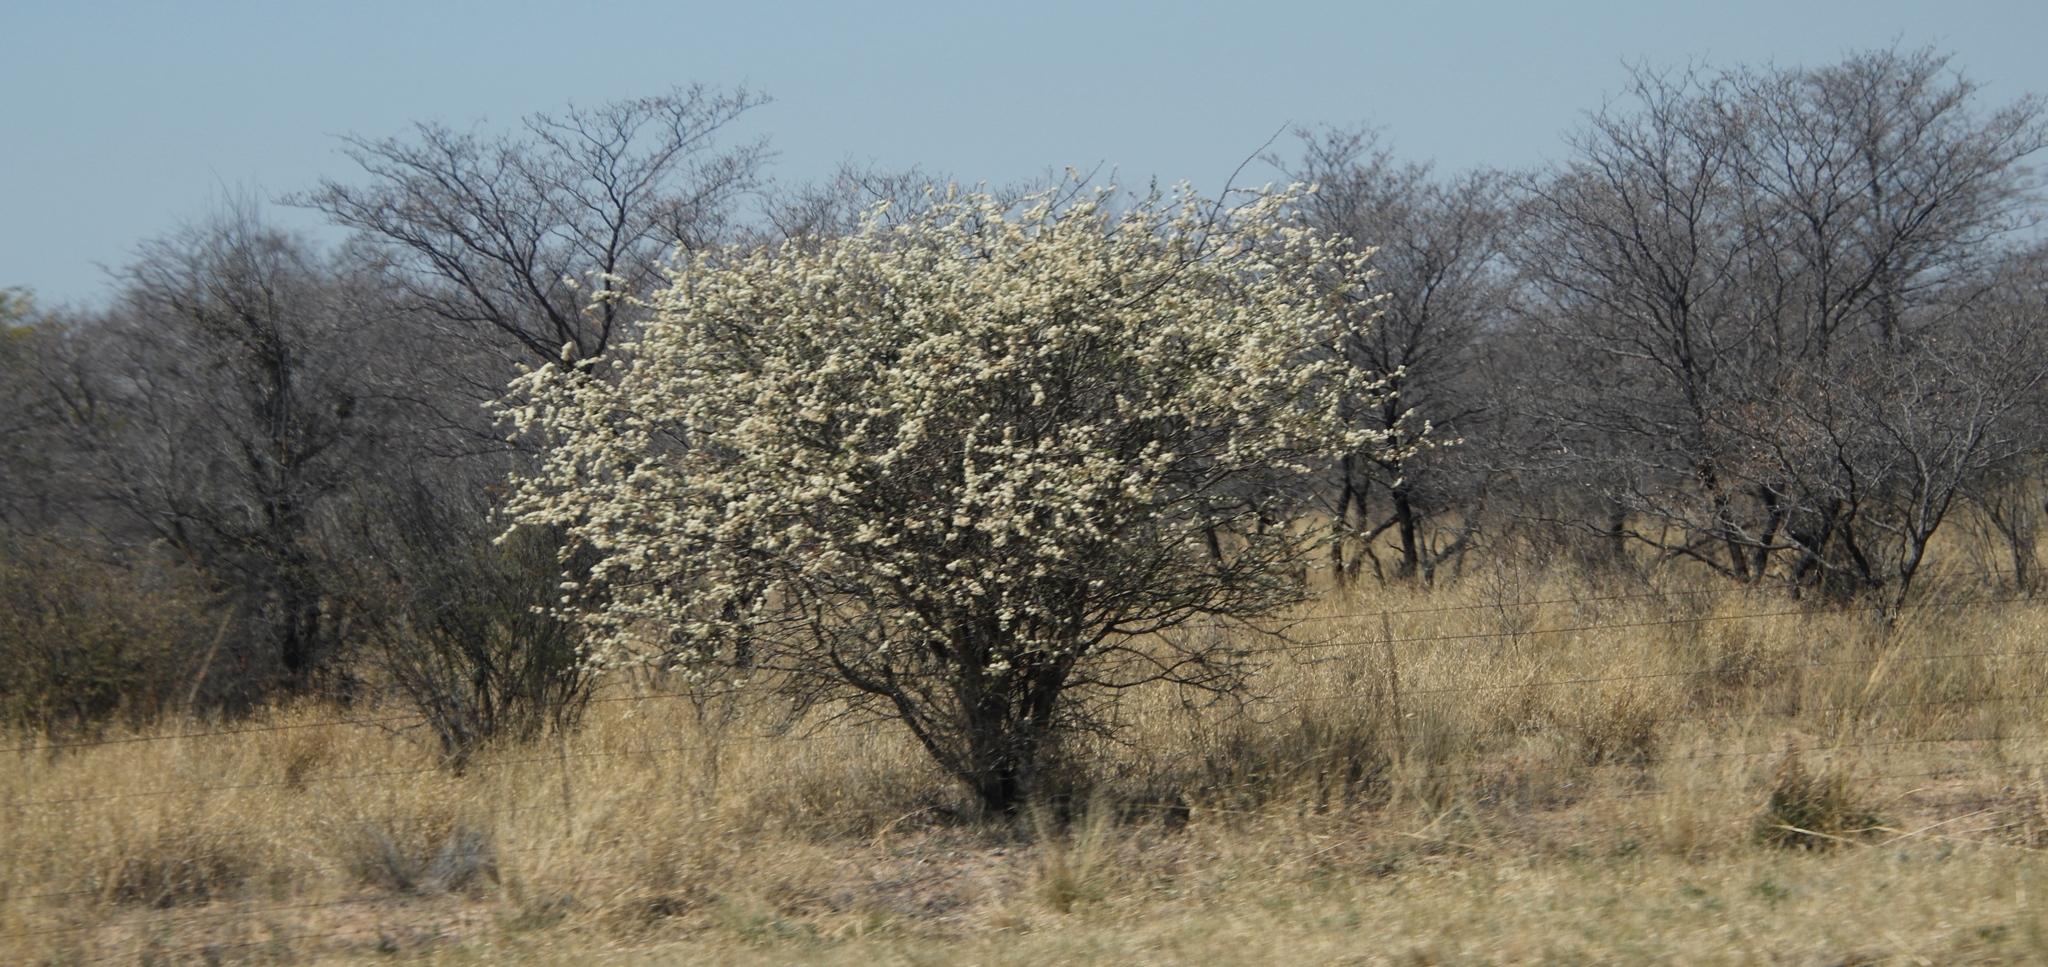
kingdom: Plantae
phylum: Tracheophyta
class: Magnoliopsida
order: Fabales
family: Fabaceae
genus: Senegalia
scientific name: Senegalia mellifera
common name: Hookthorn
